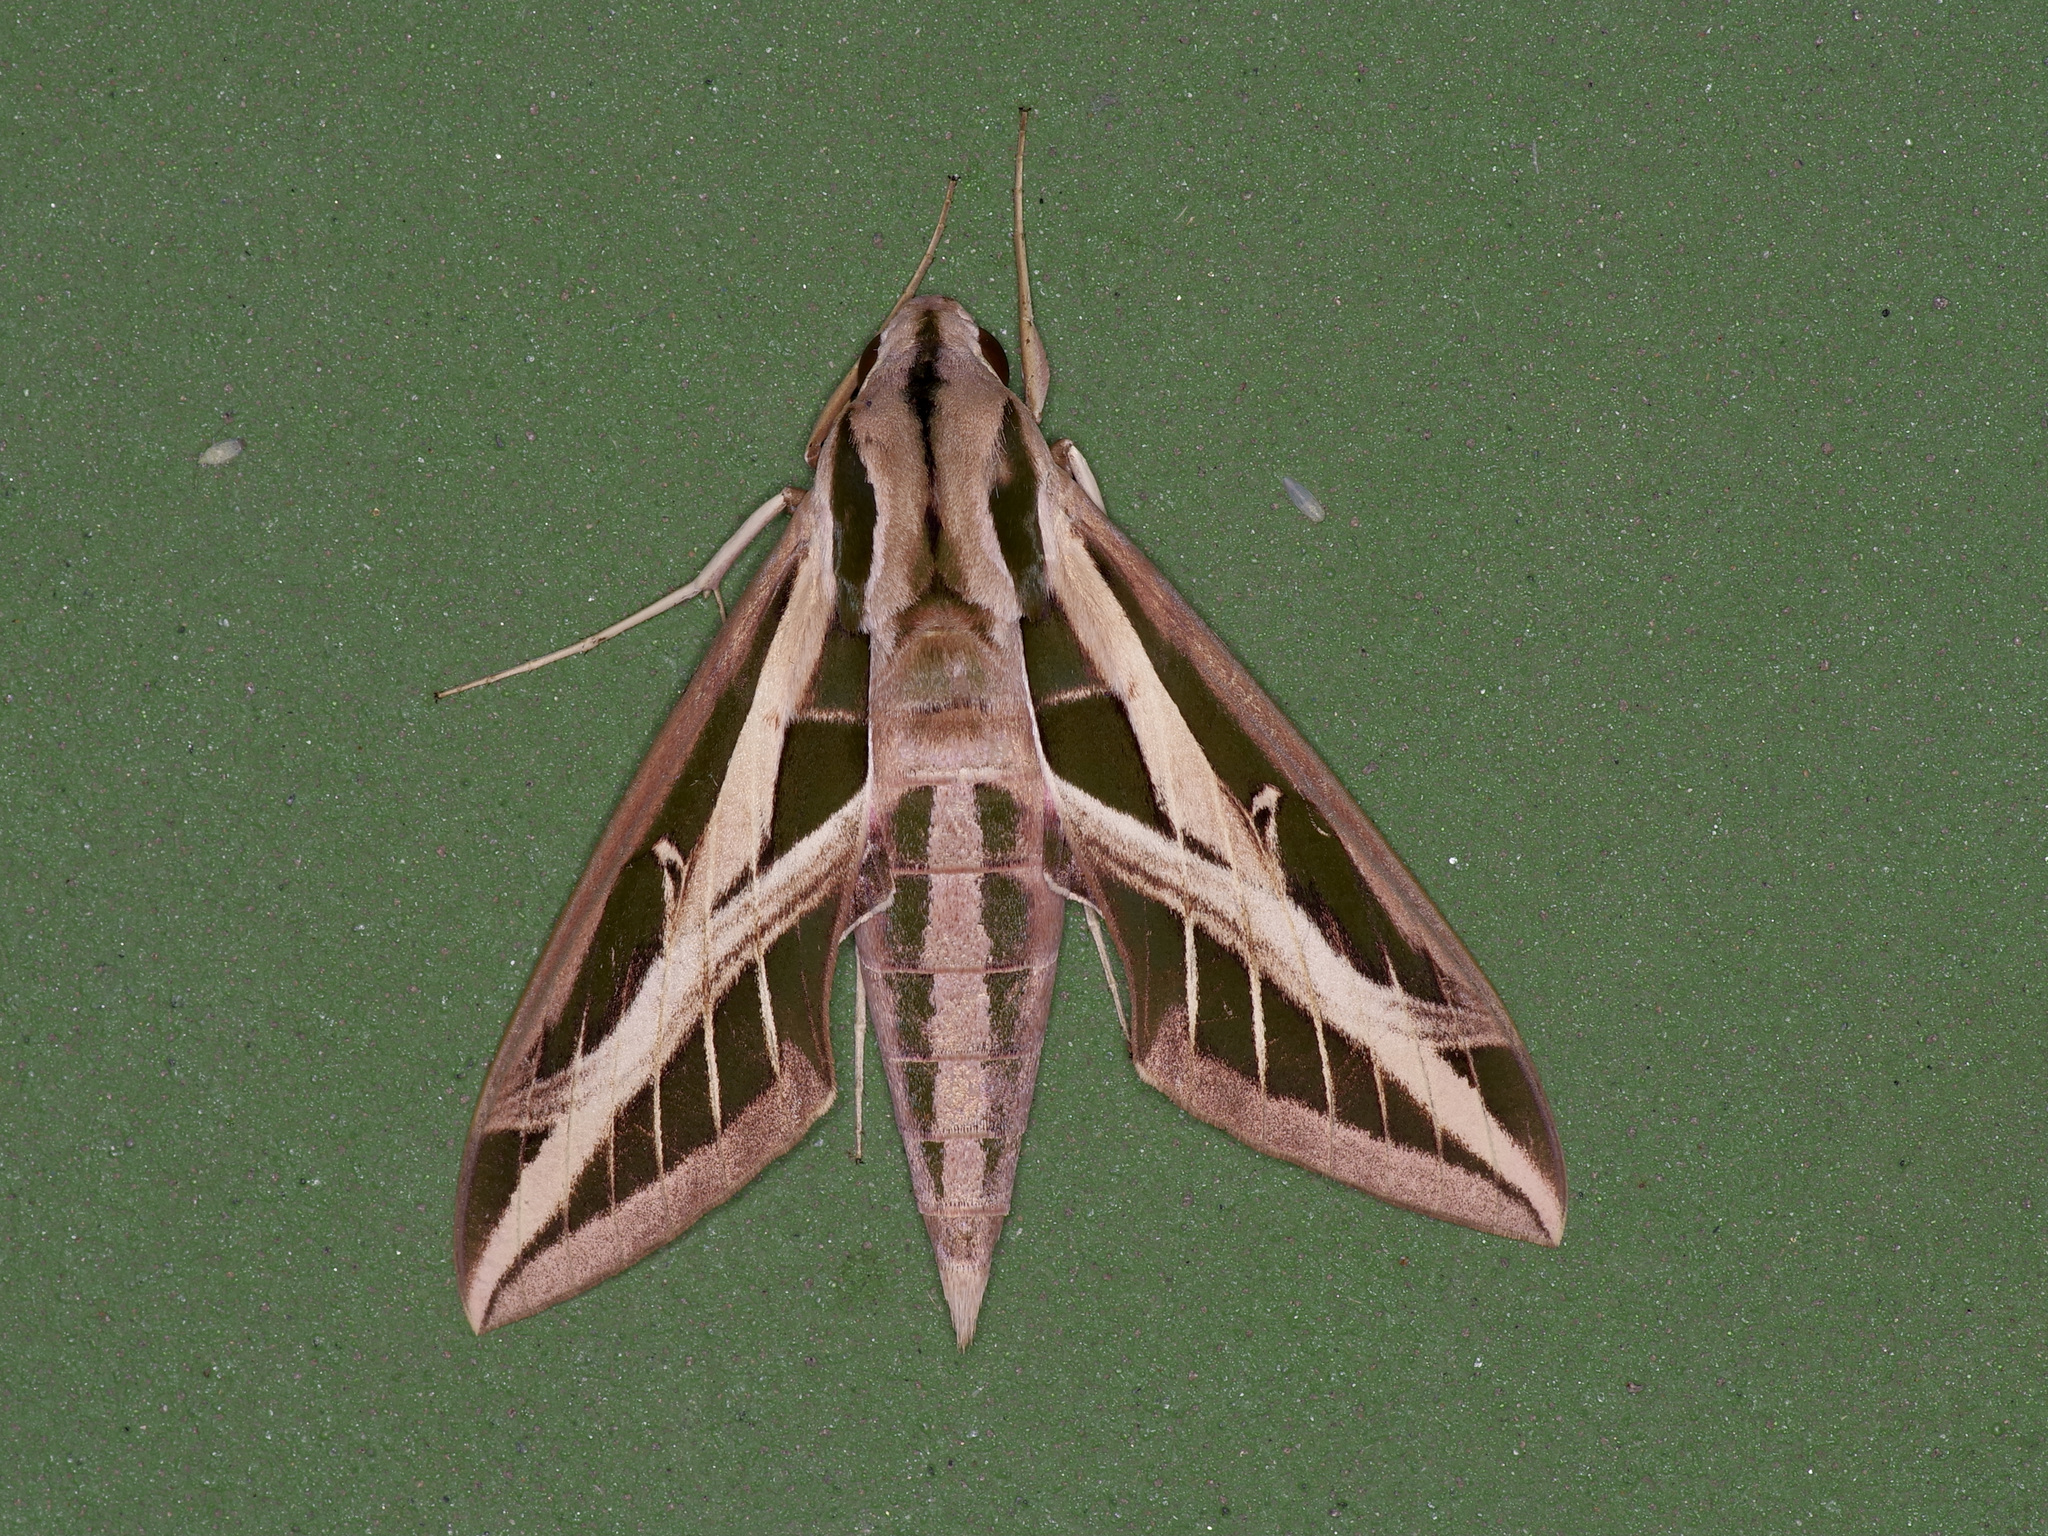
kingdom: Animalia
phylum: Arthropoda
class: Insecta
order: Lepidoptera
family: Sphingidae
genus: Eumorpha
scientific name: Eumorpha fasciatus
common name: Banded sphinx
